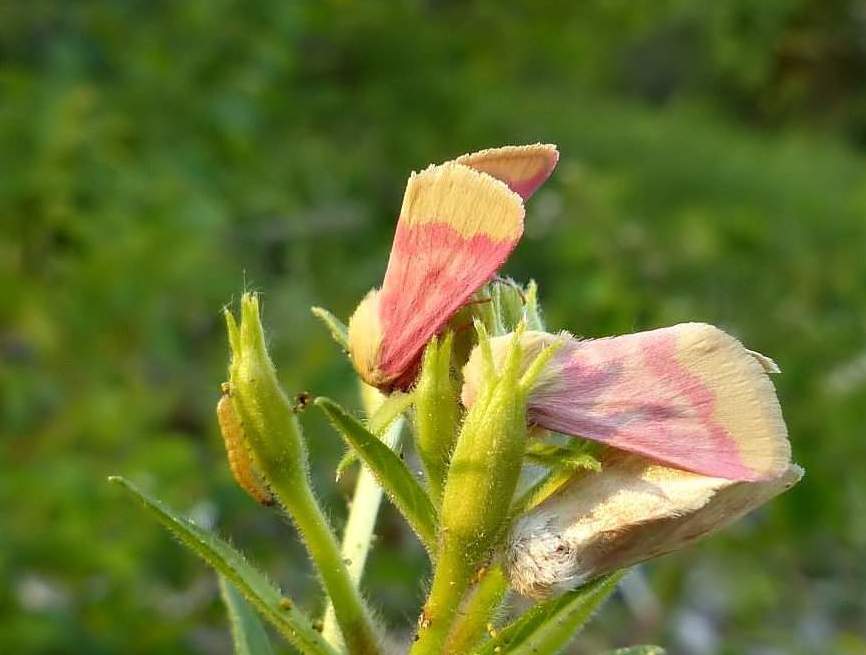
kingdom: Animalia
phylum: Arthropoda
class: Insecta
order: Lepidoptera
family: Noctuidae
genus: Schinia
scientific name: Schinia florida
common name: Primrose moth
